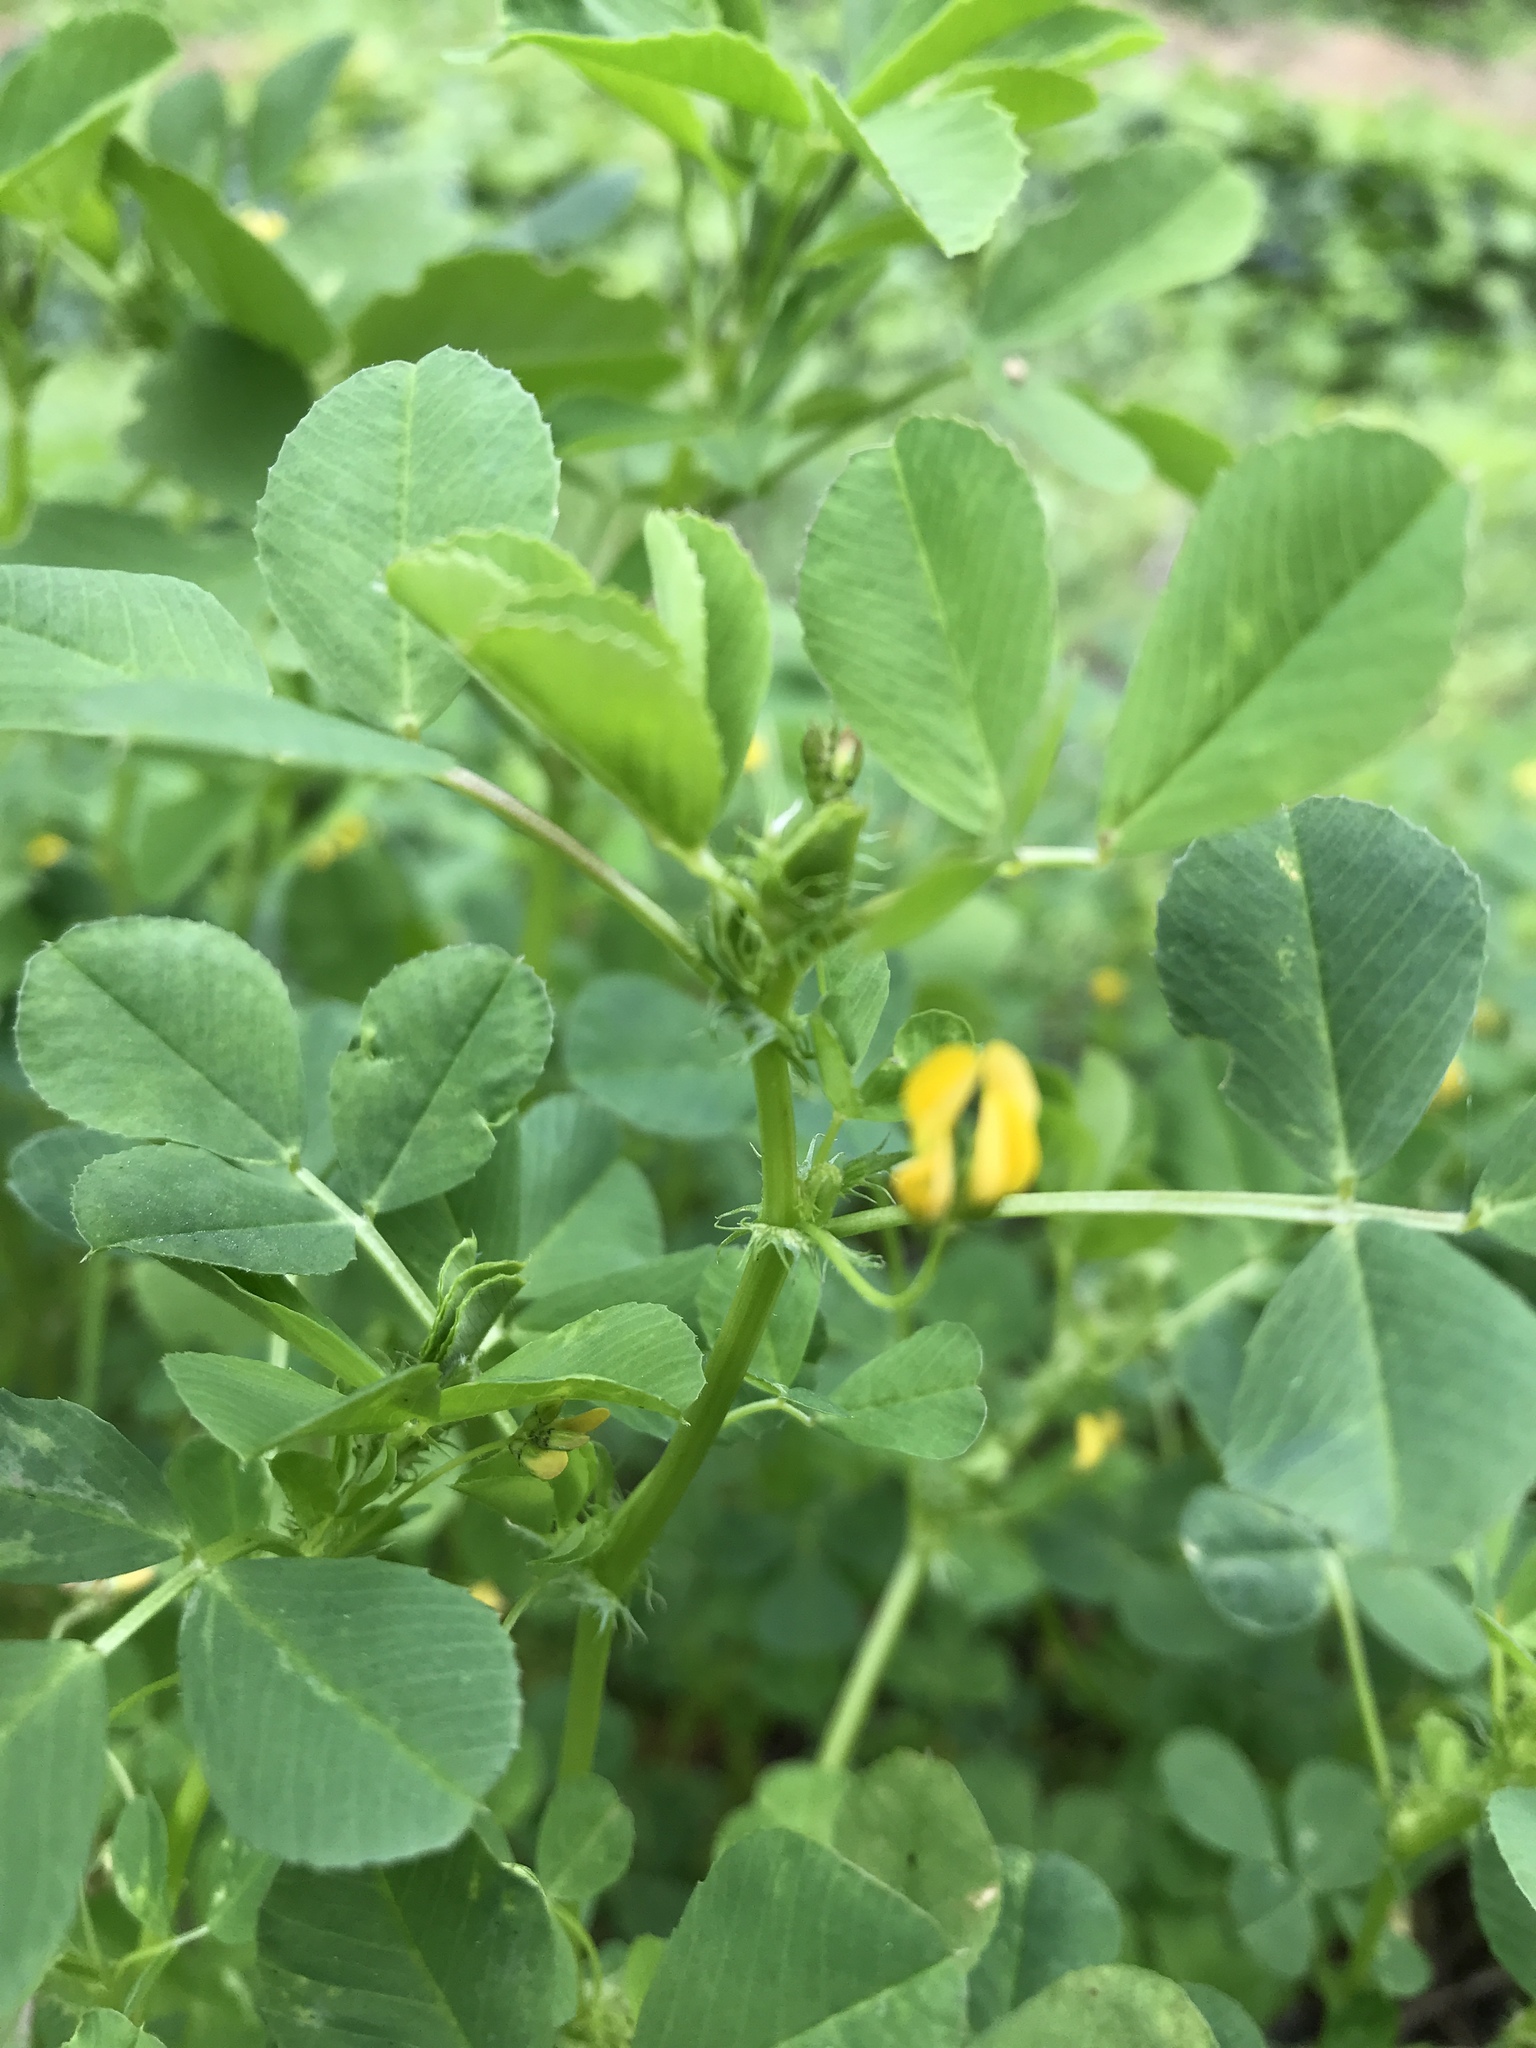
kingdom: Plantae
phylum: Tracheophyta
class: Magnoliopsida
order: Fabales
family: Fabaceae
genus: Medicago
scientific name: Medicago polymorpha
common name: Burclover
